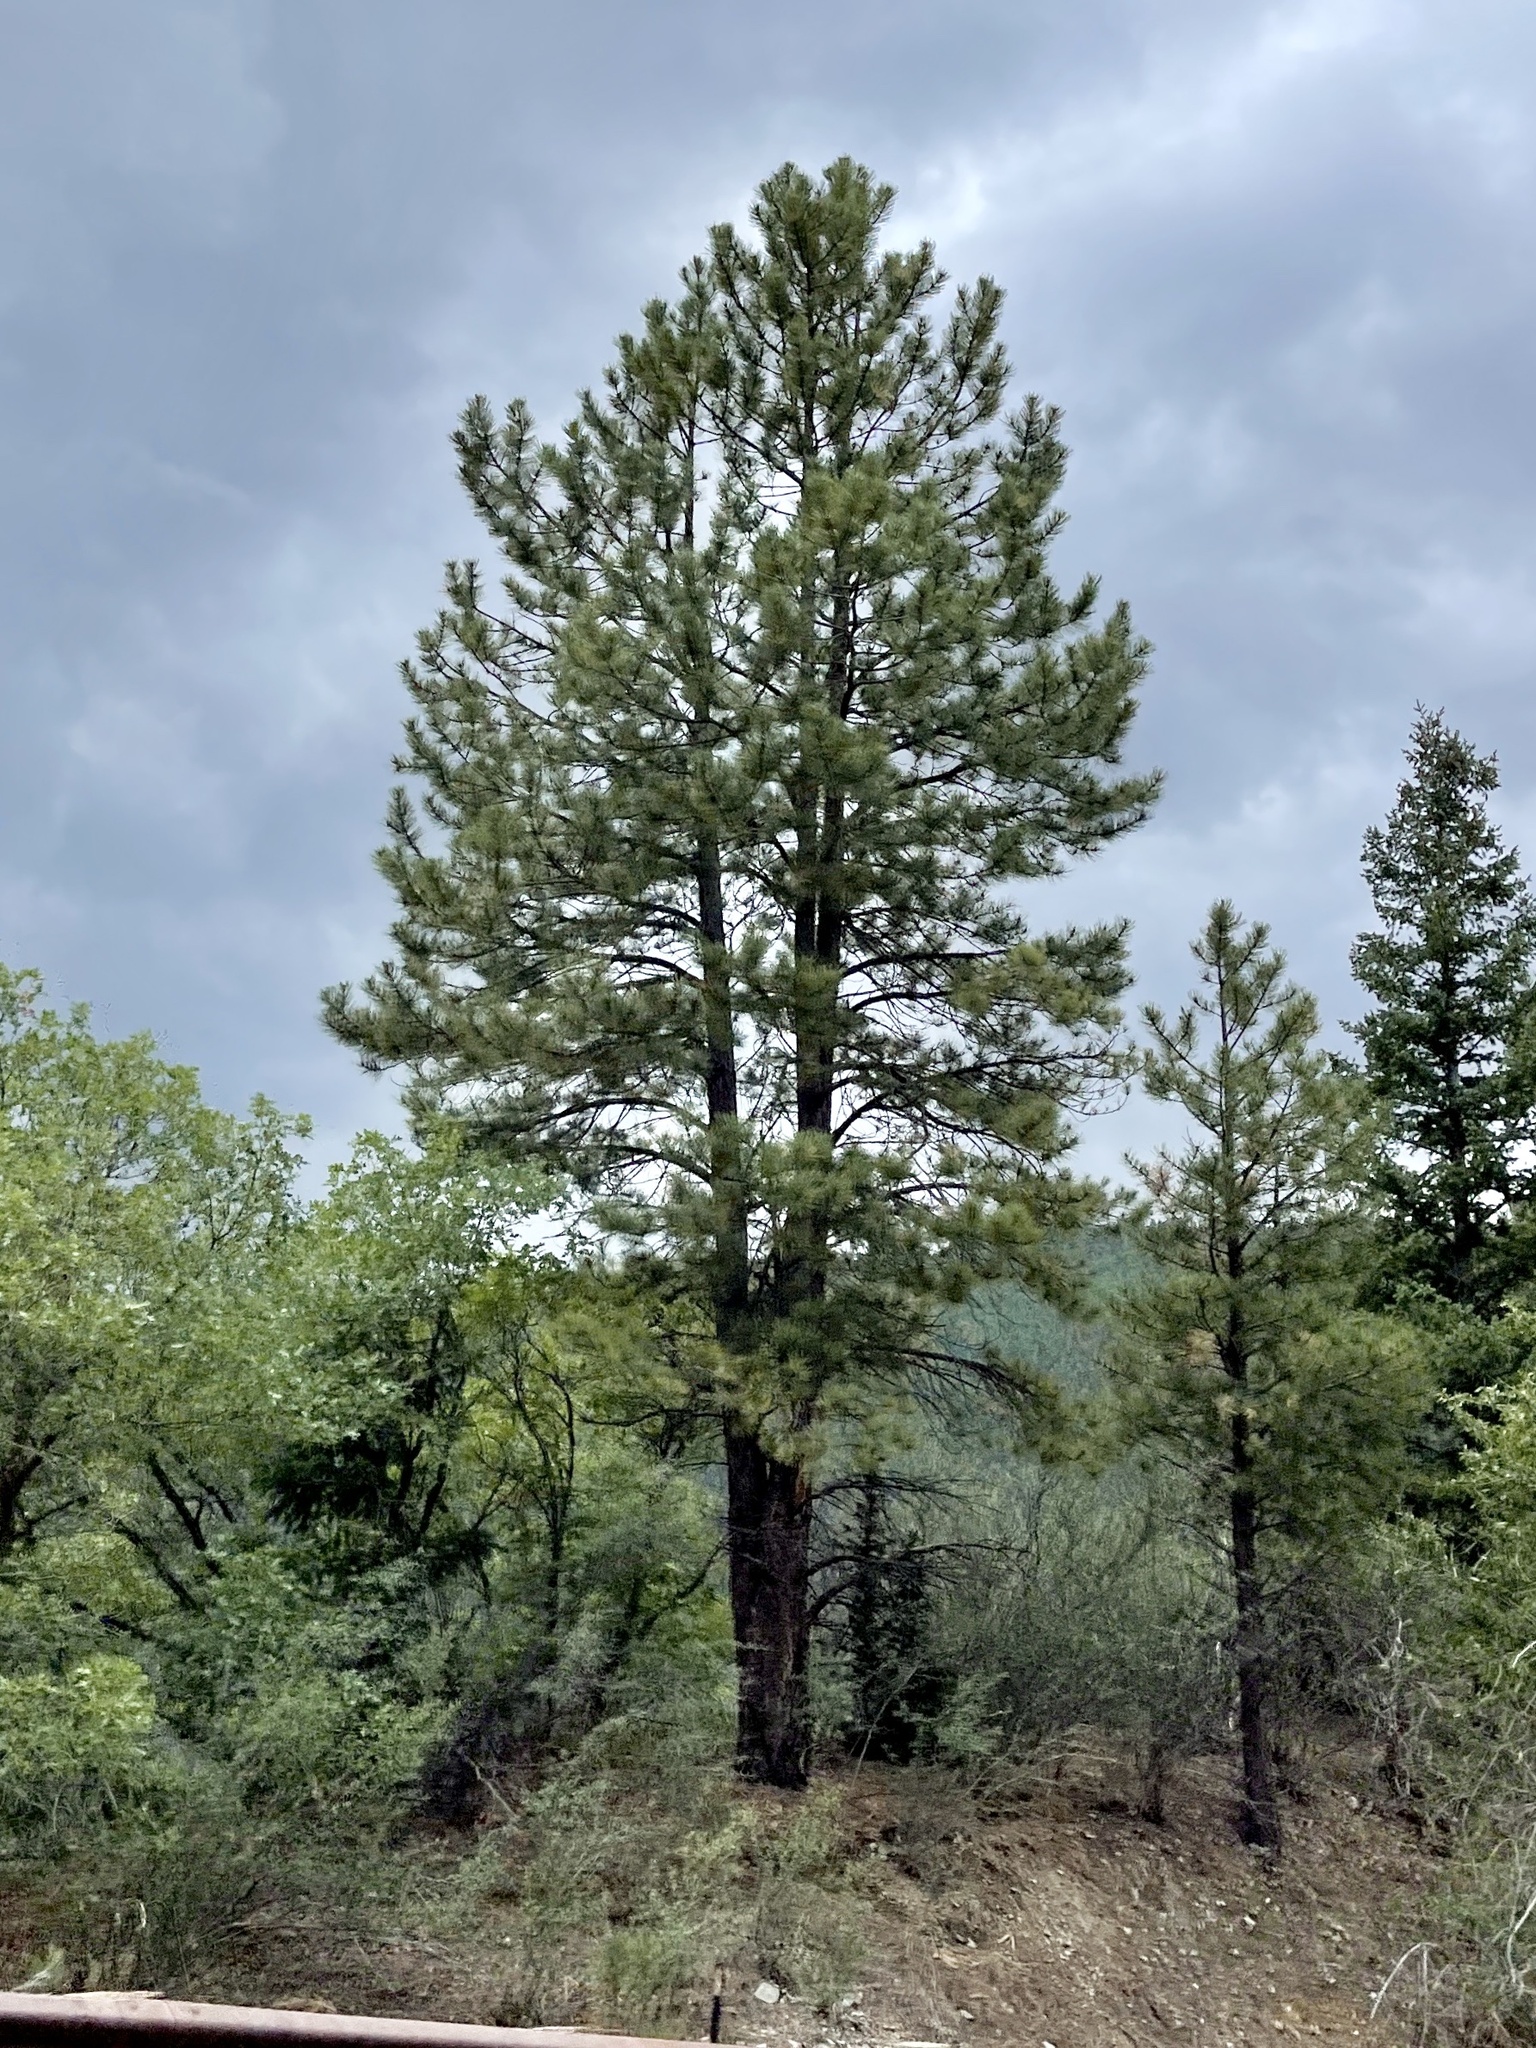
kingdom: Plantae
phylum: Tracheophyta
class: Pinopsida
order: Pinales
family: Pinaceae
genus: Pinus
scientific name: Pinus ponderosa
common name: Western yellow-pine
